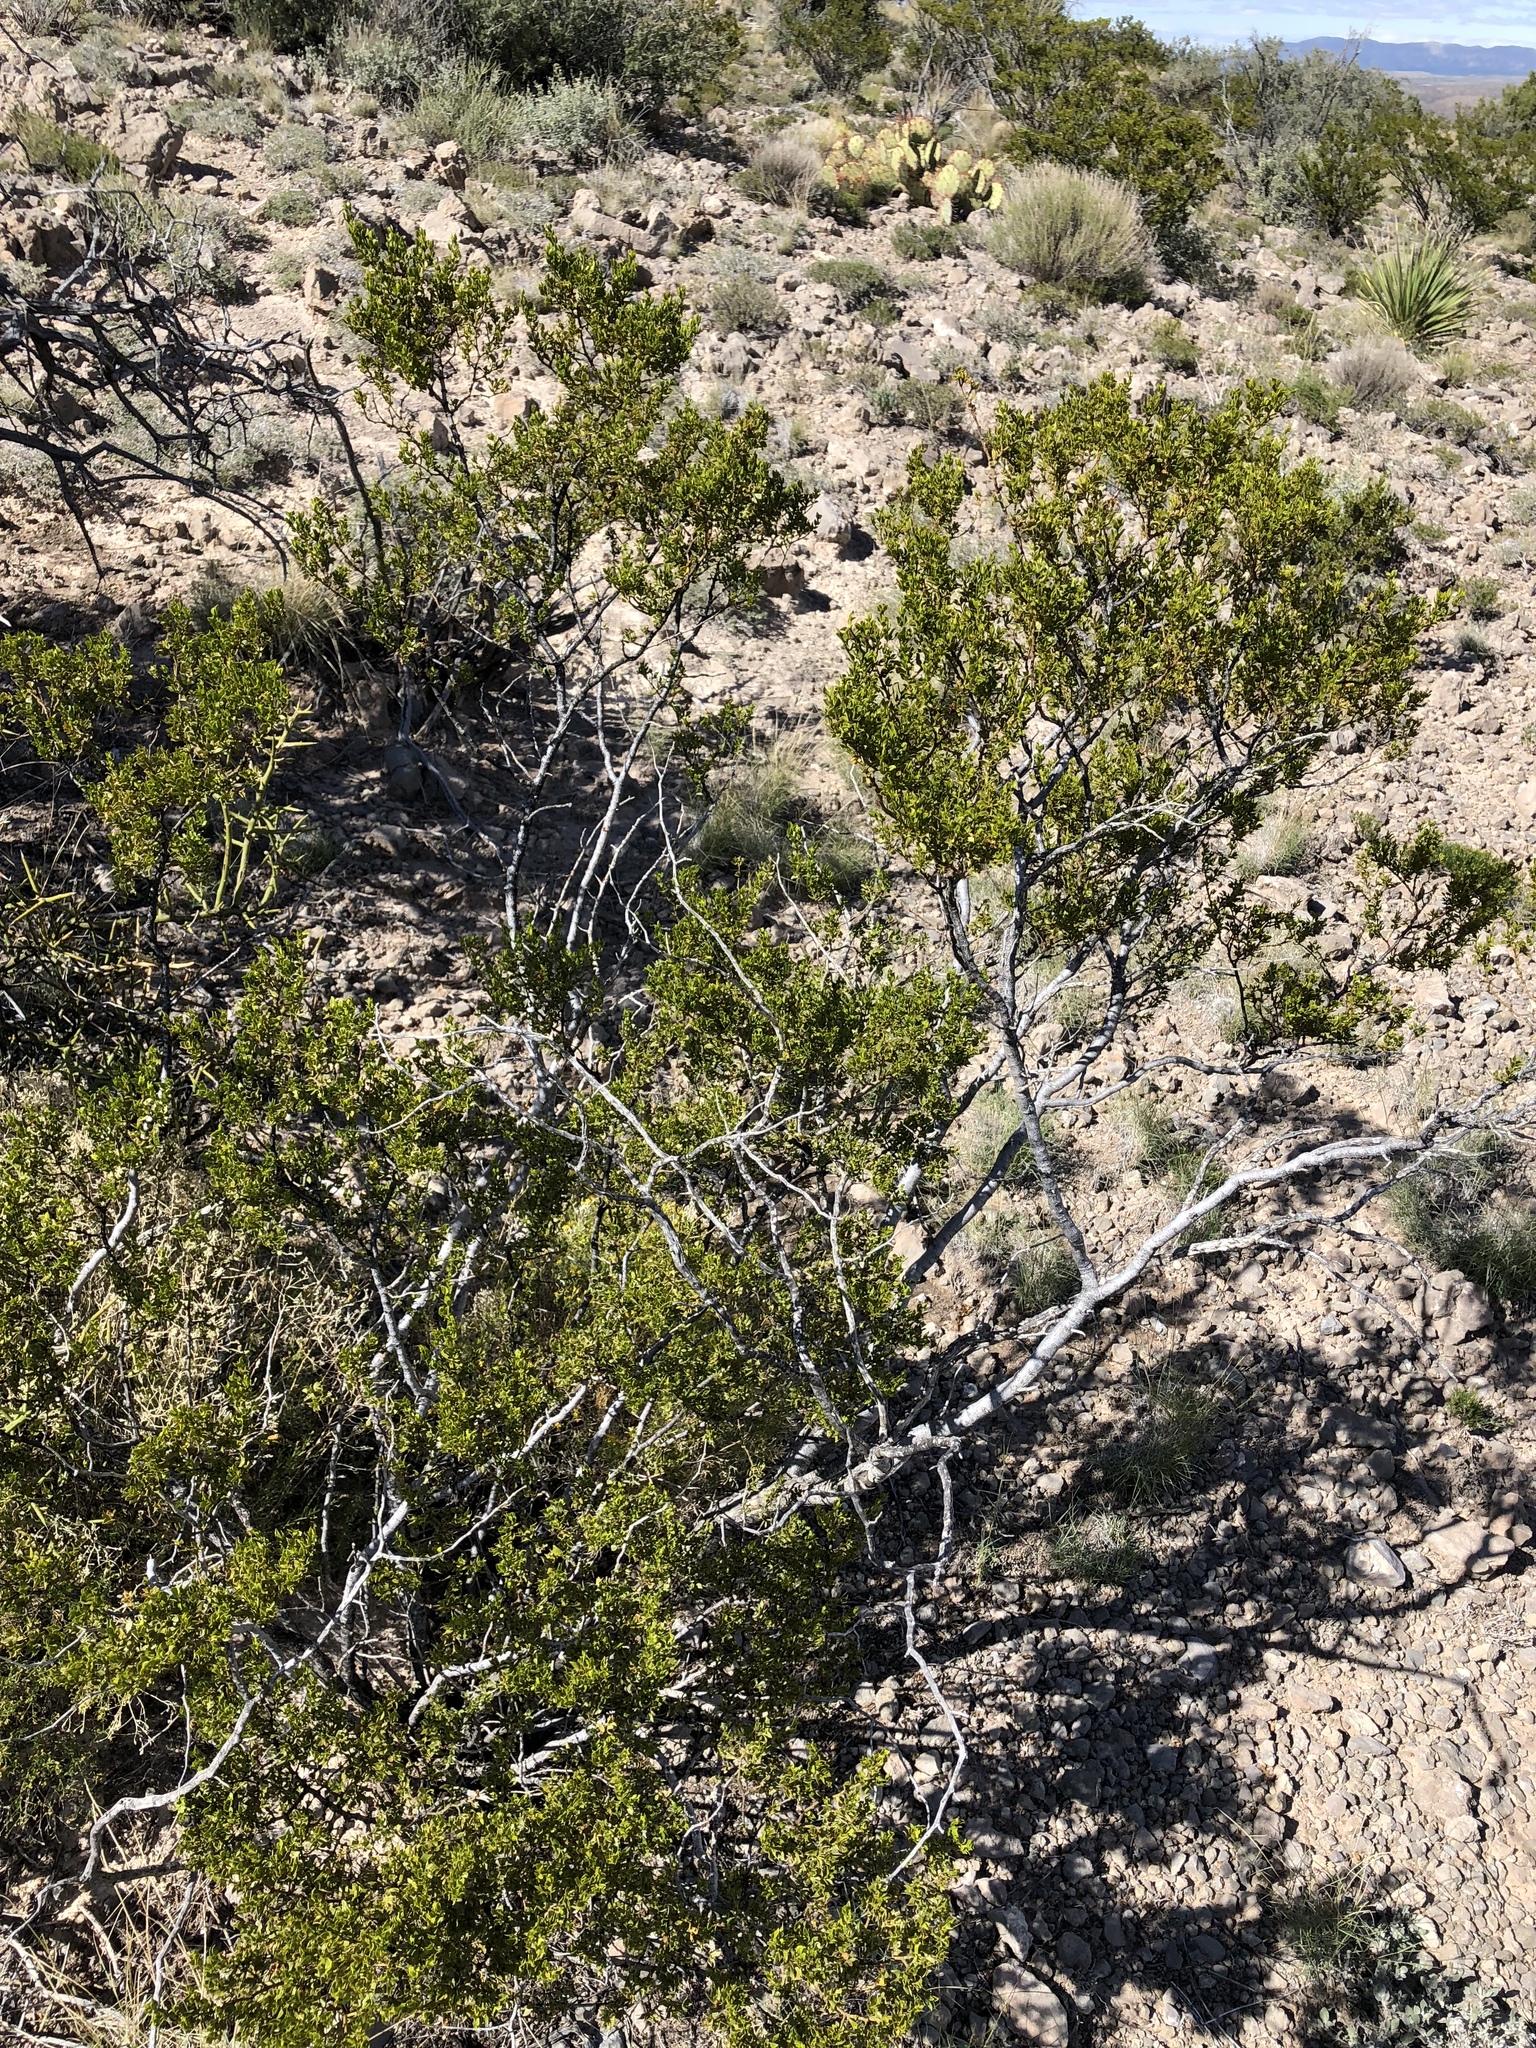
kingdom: Plantae
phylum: Tracheophyta
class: Magnoliopsida
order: Zygophyllales
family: Zygophyllaceae
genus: Larrea
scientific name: Larrea tridentata
